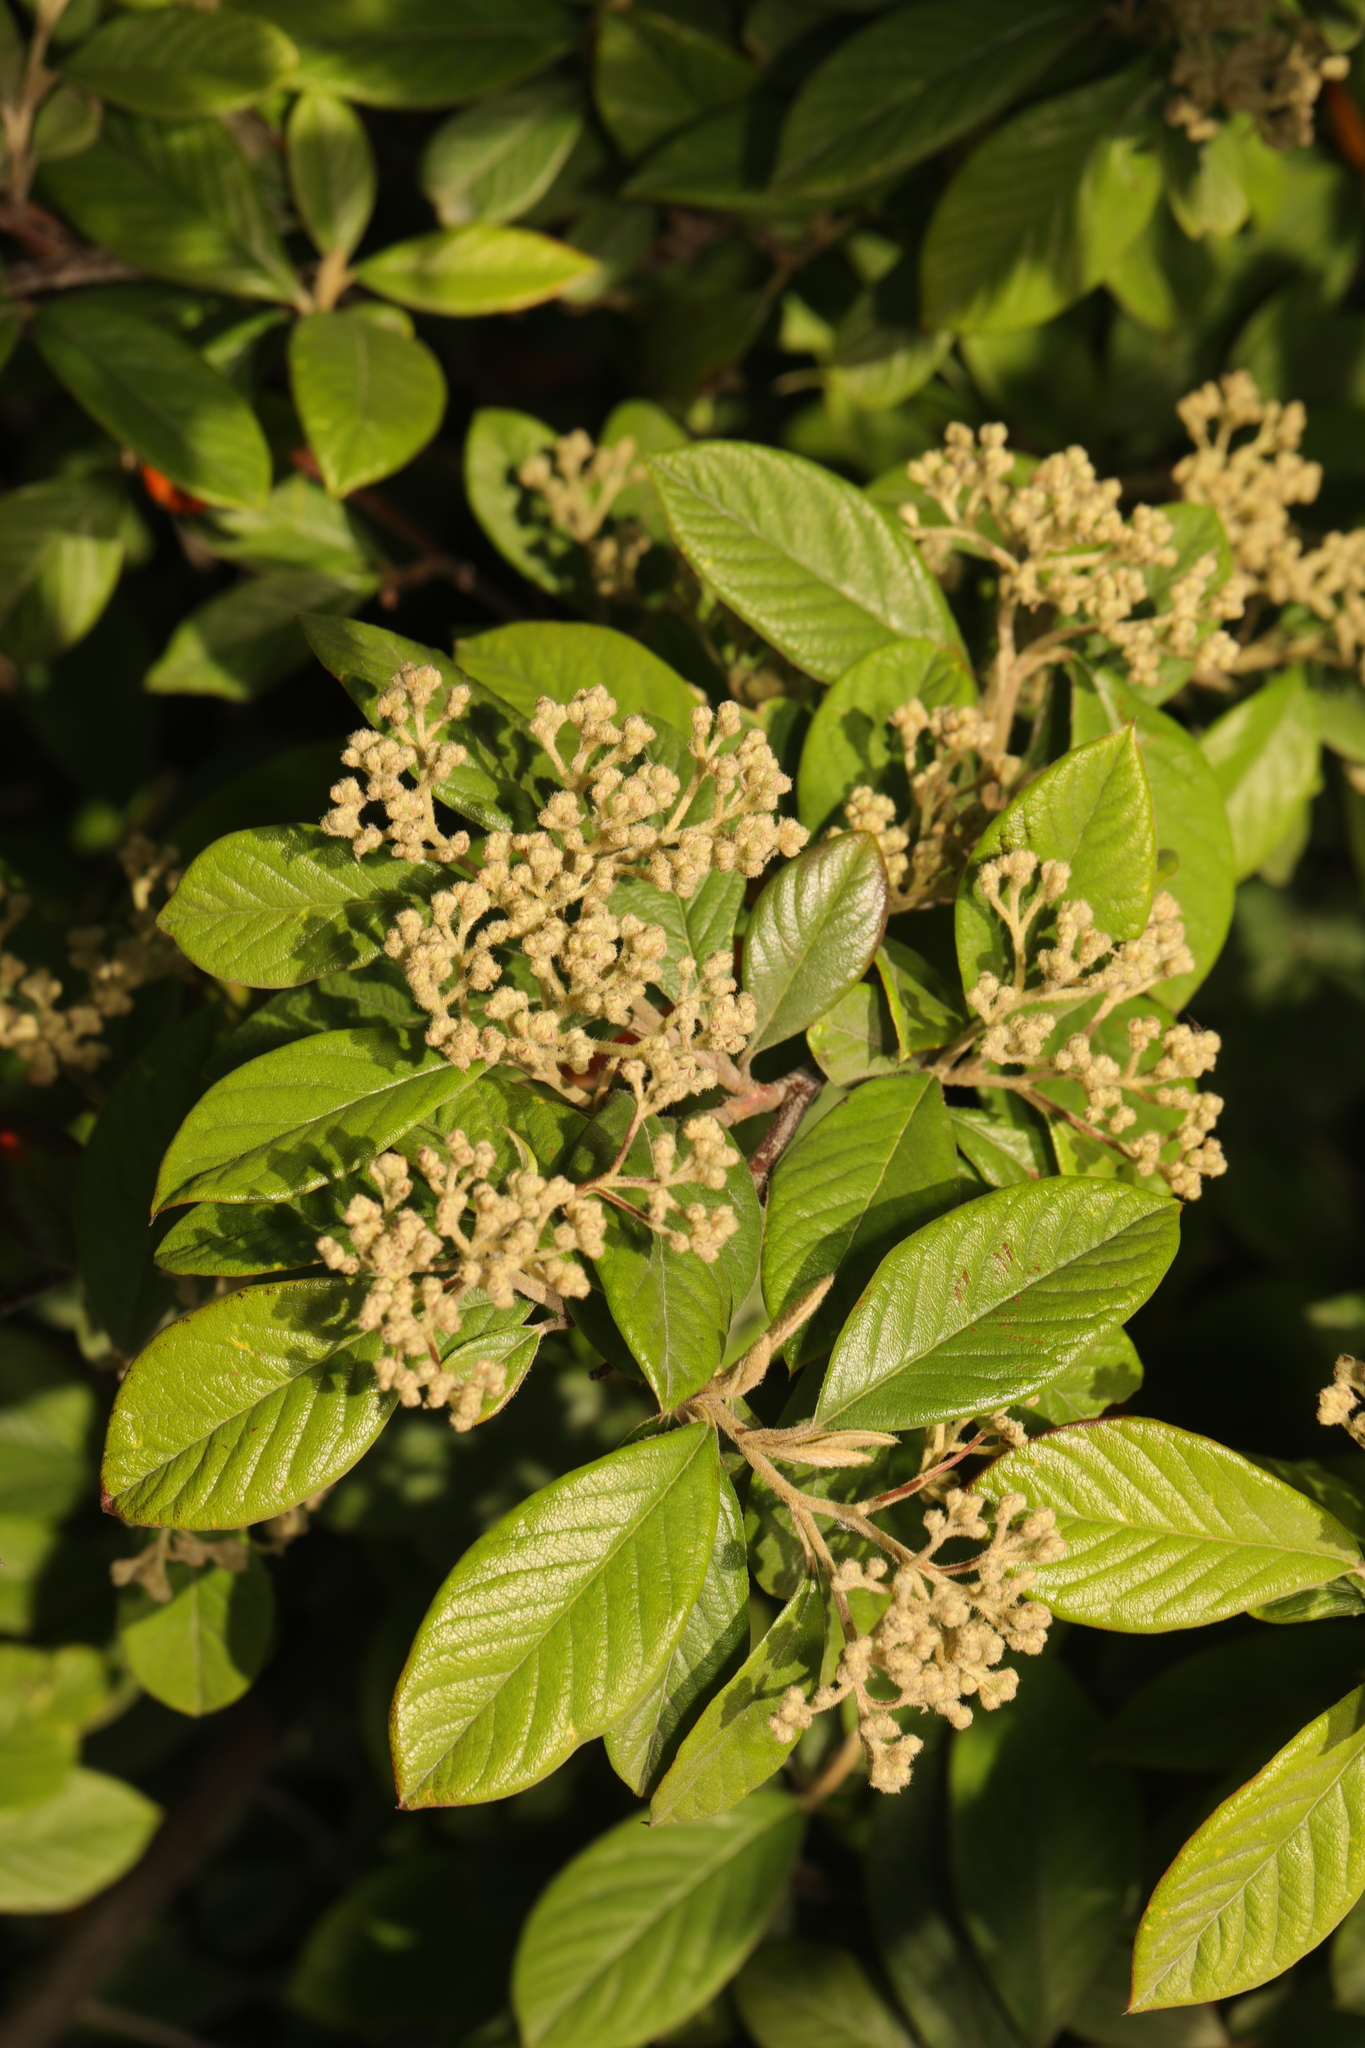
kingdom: Plantae
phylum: Tracheophyta
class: Magnoliopsida
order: Rosales
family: Rosaceae
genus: Cotoneaster
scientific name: Cotoneaster coriaceus
